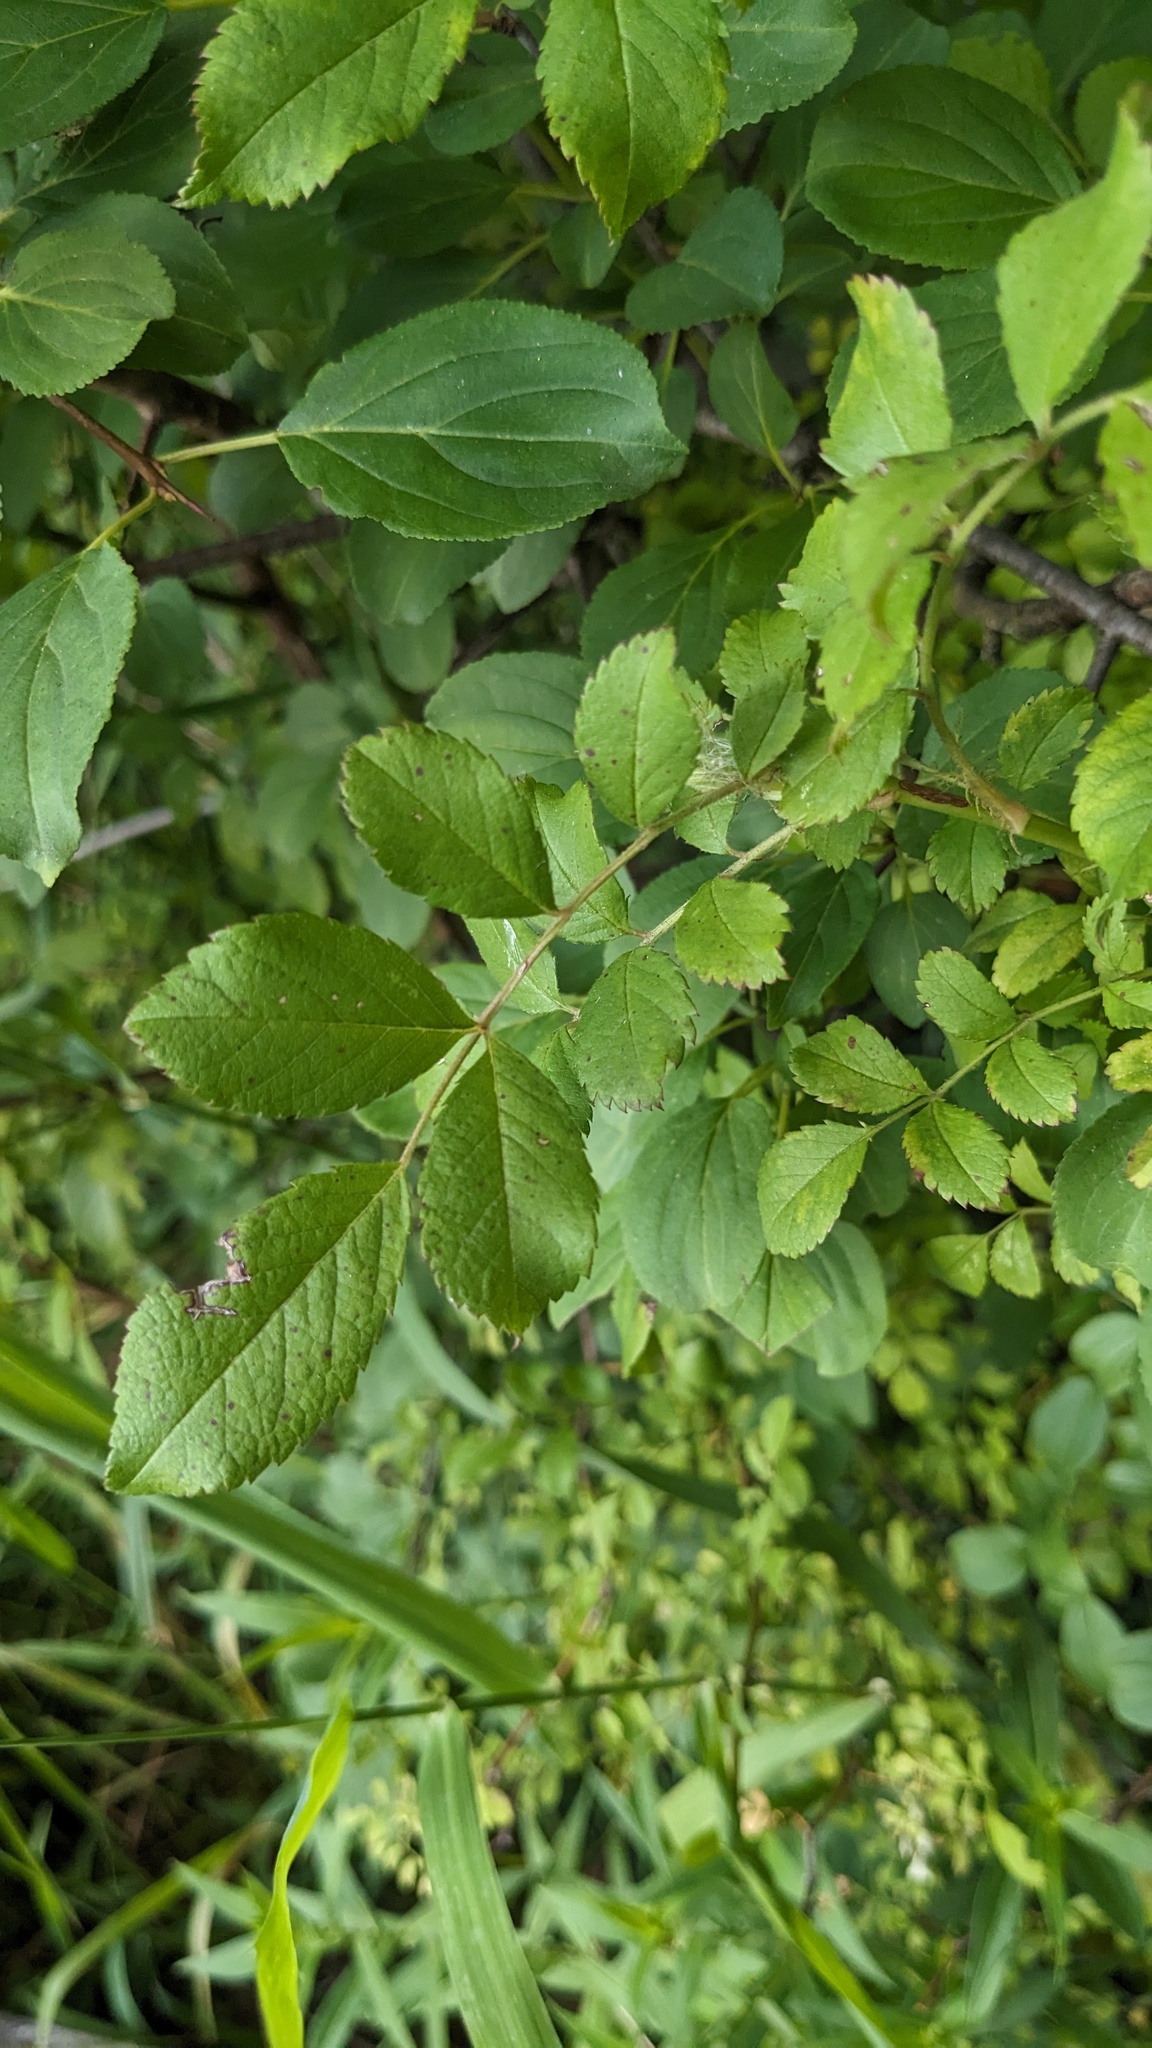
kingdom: Plantae
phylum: Tracheophyta
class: Magnoliopsida
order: Rosales
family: Rosaceae
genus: Rosa
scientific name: Rosa multiflora
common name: Multiflora rose
